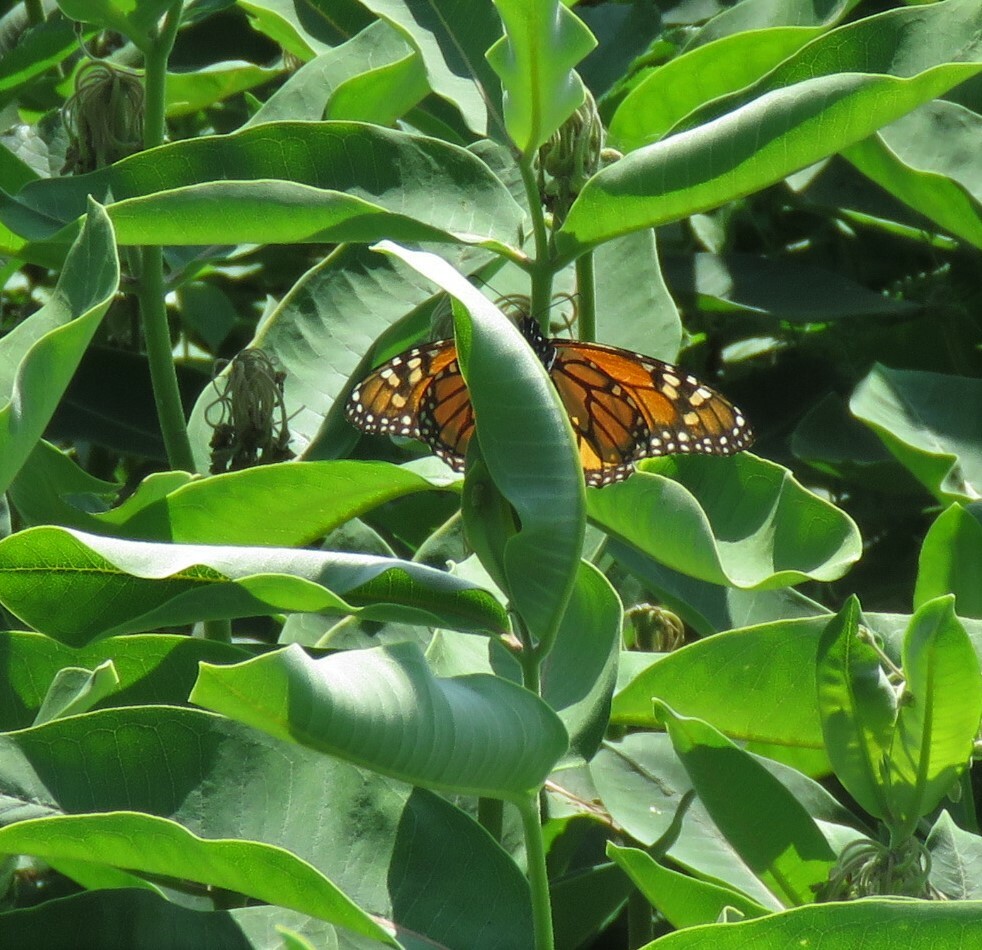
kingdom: Animalia
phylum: Arthropoda
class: Insecta
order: Lepidoptera
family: Nymphalidae
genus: Danaus
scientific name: Danaus plexippus
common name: Monarch
